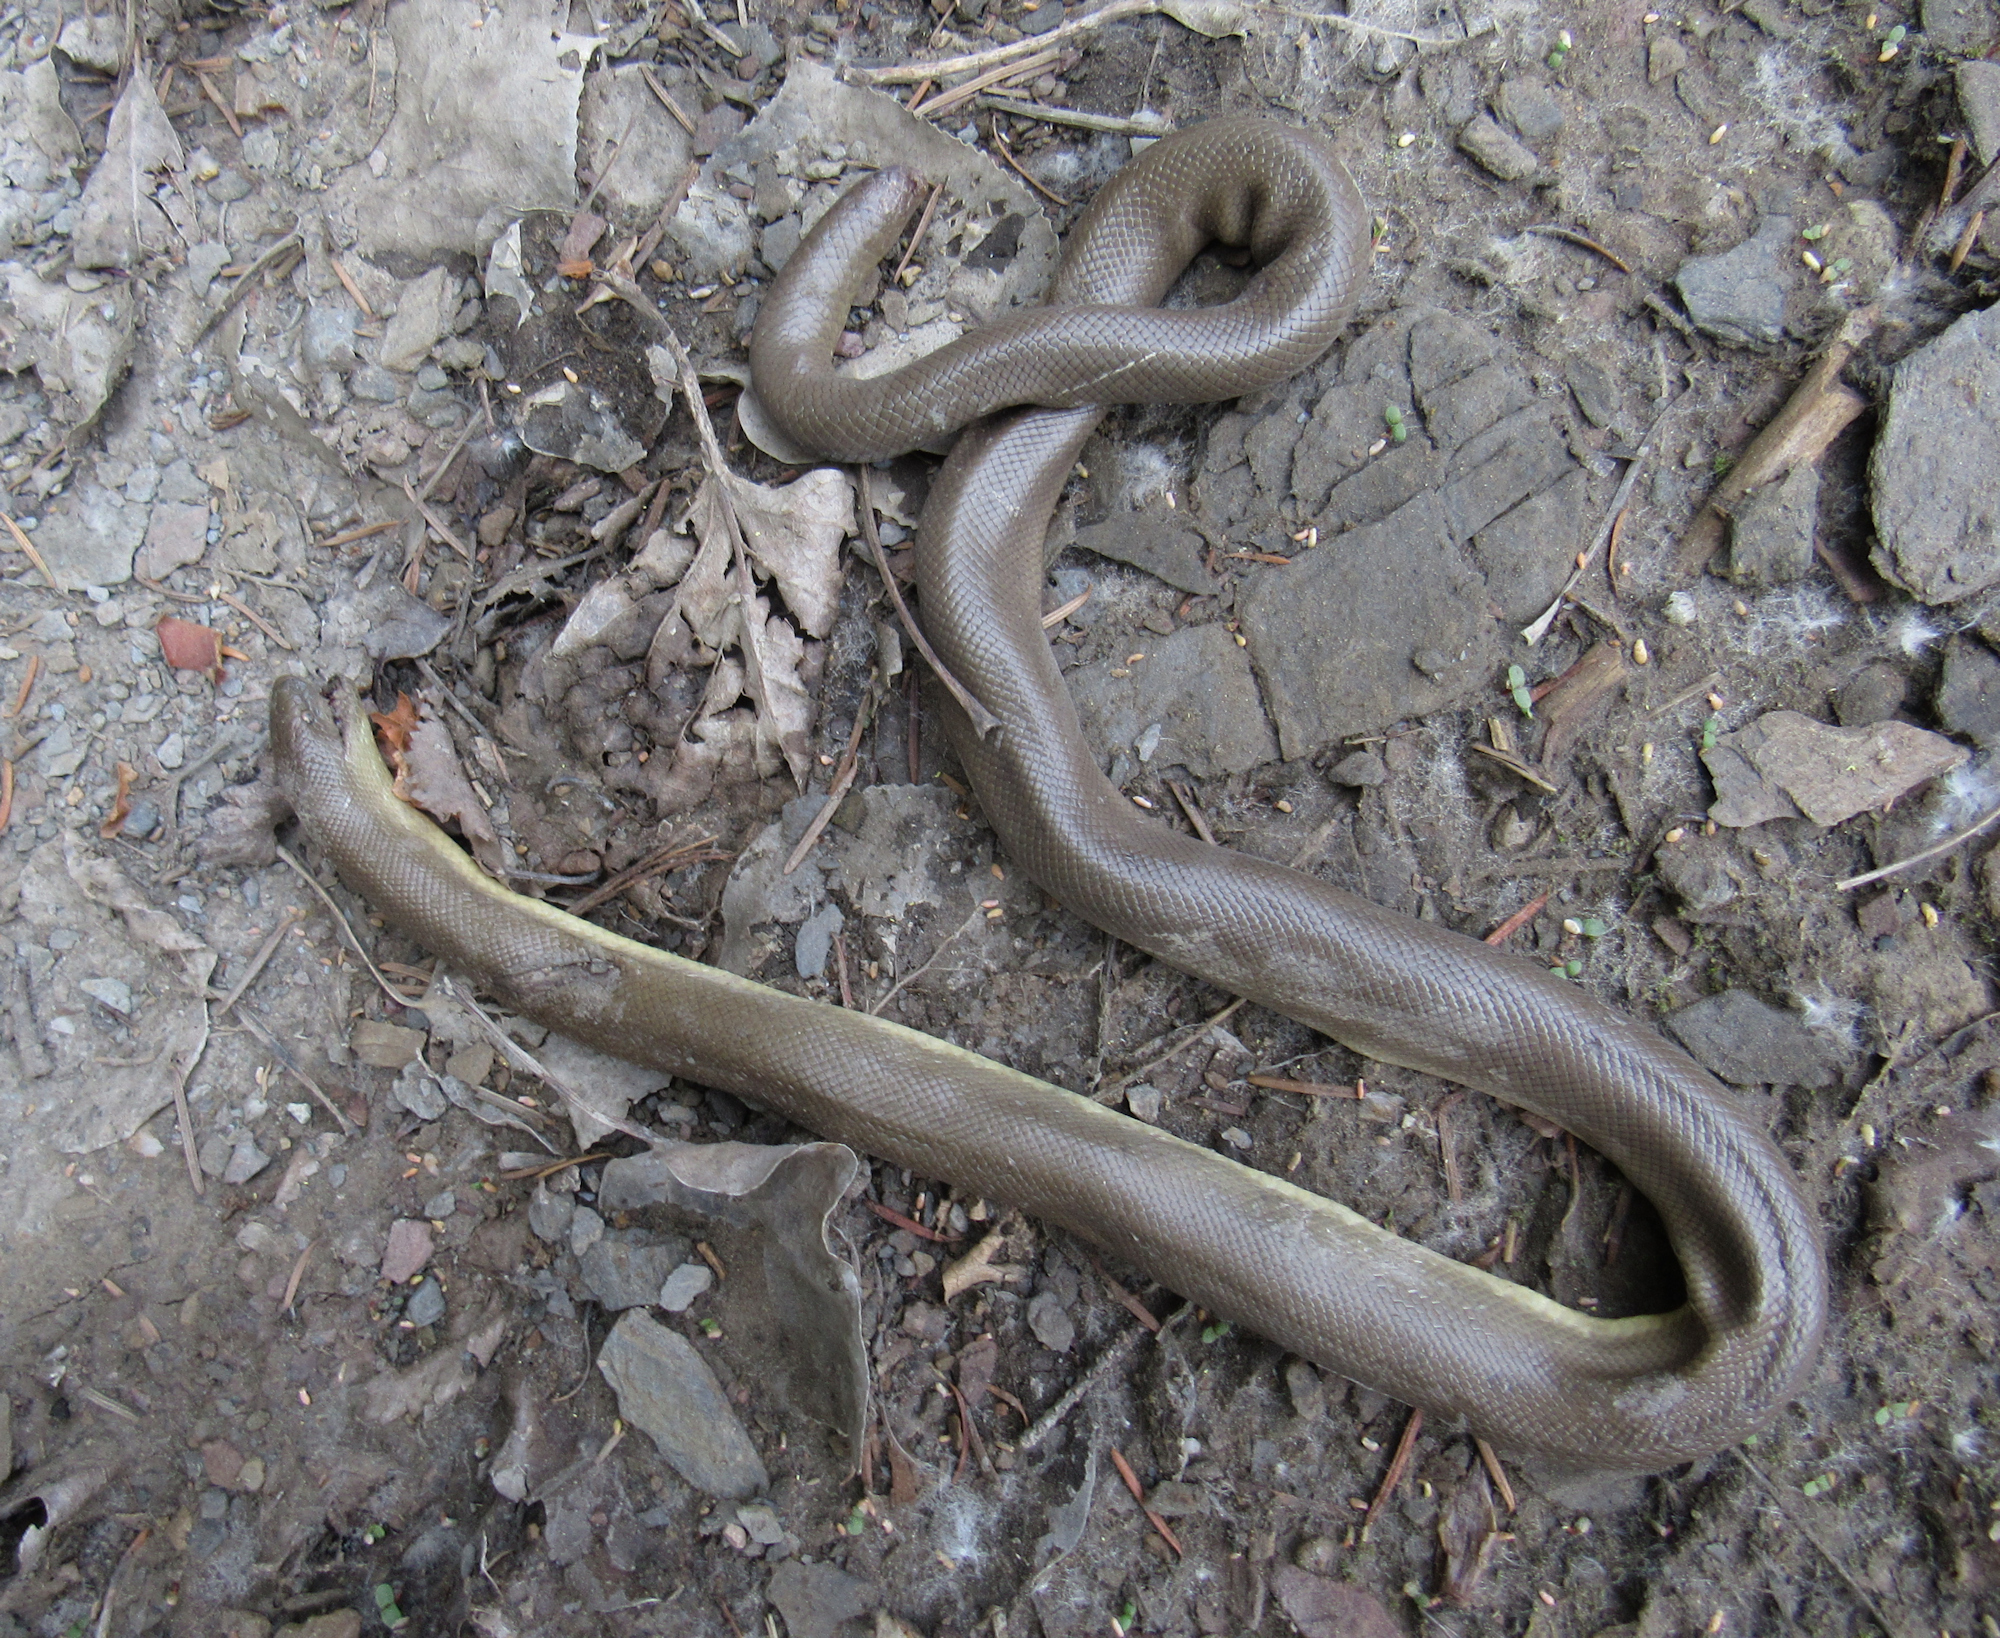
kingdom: Animalia
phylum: Chordata
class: Squamata
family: Boidae
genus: Charina
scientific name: Charina bottae
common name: Northern rubber boa
